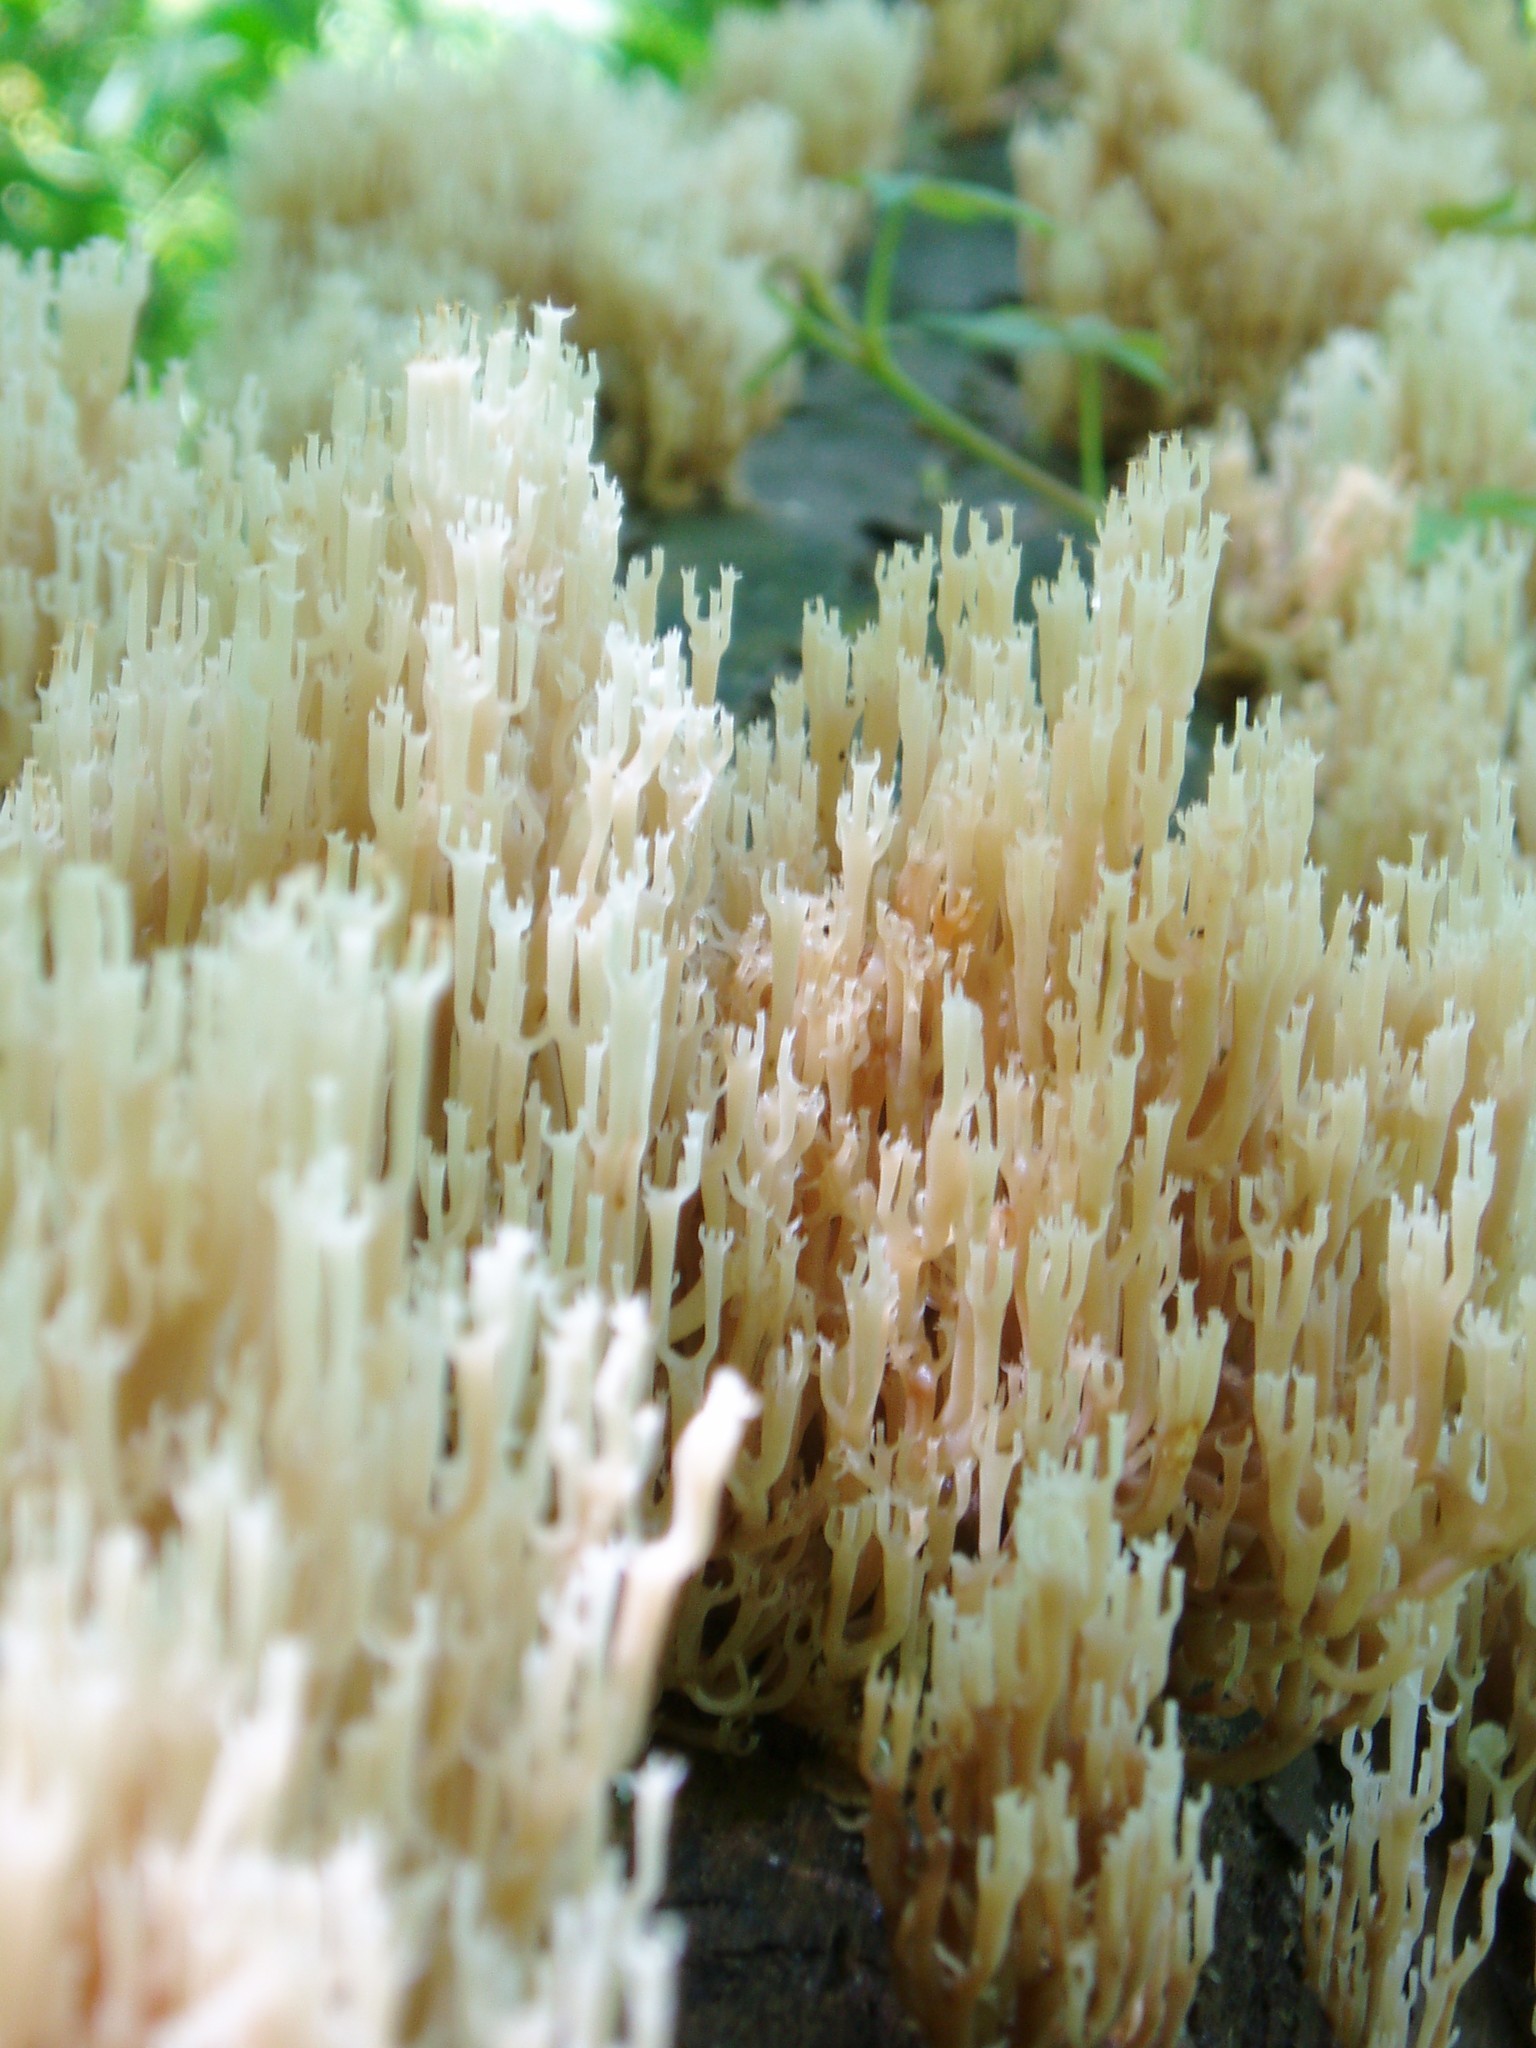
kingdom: Fungi
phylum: Basidiomycota
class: Agaricomycetes
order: Russulales
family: Auriscalpiaceae
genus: Artomyces
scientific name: Artomyces pyxidatus
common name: Crown-tipped coral fungus
